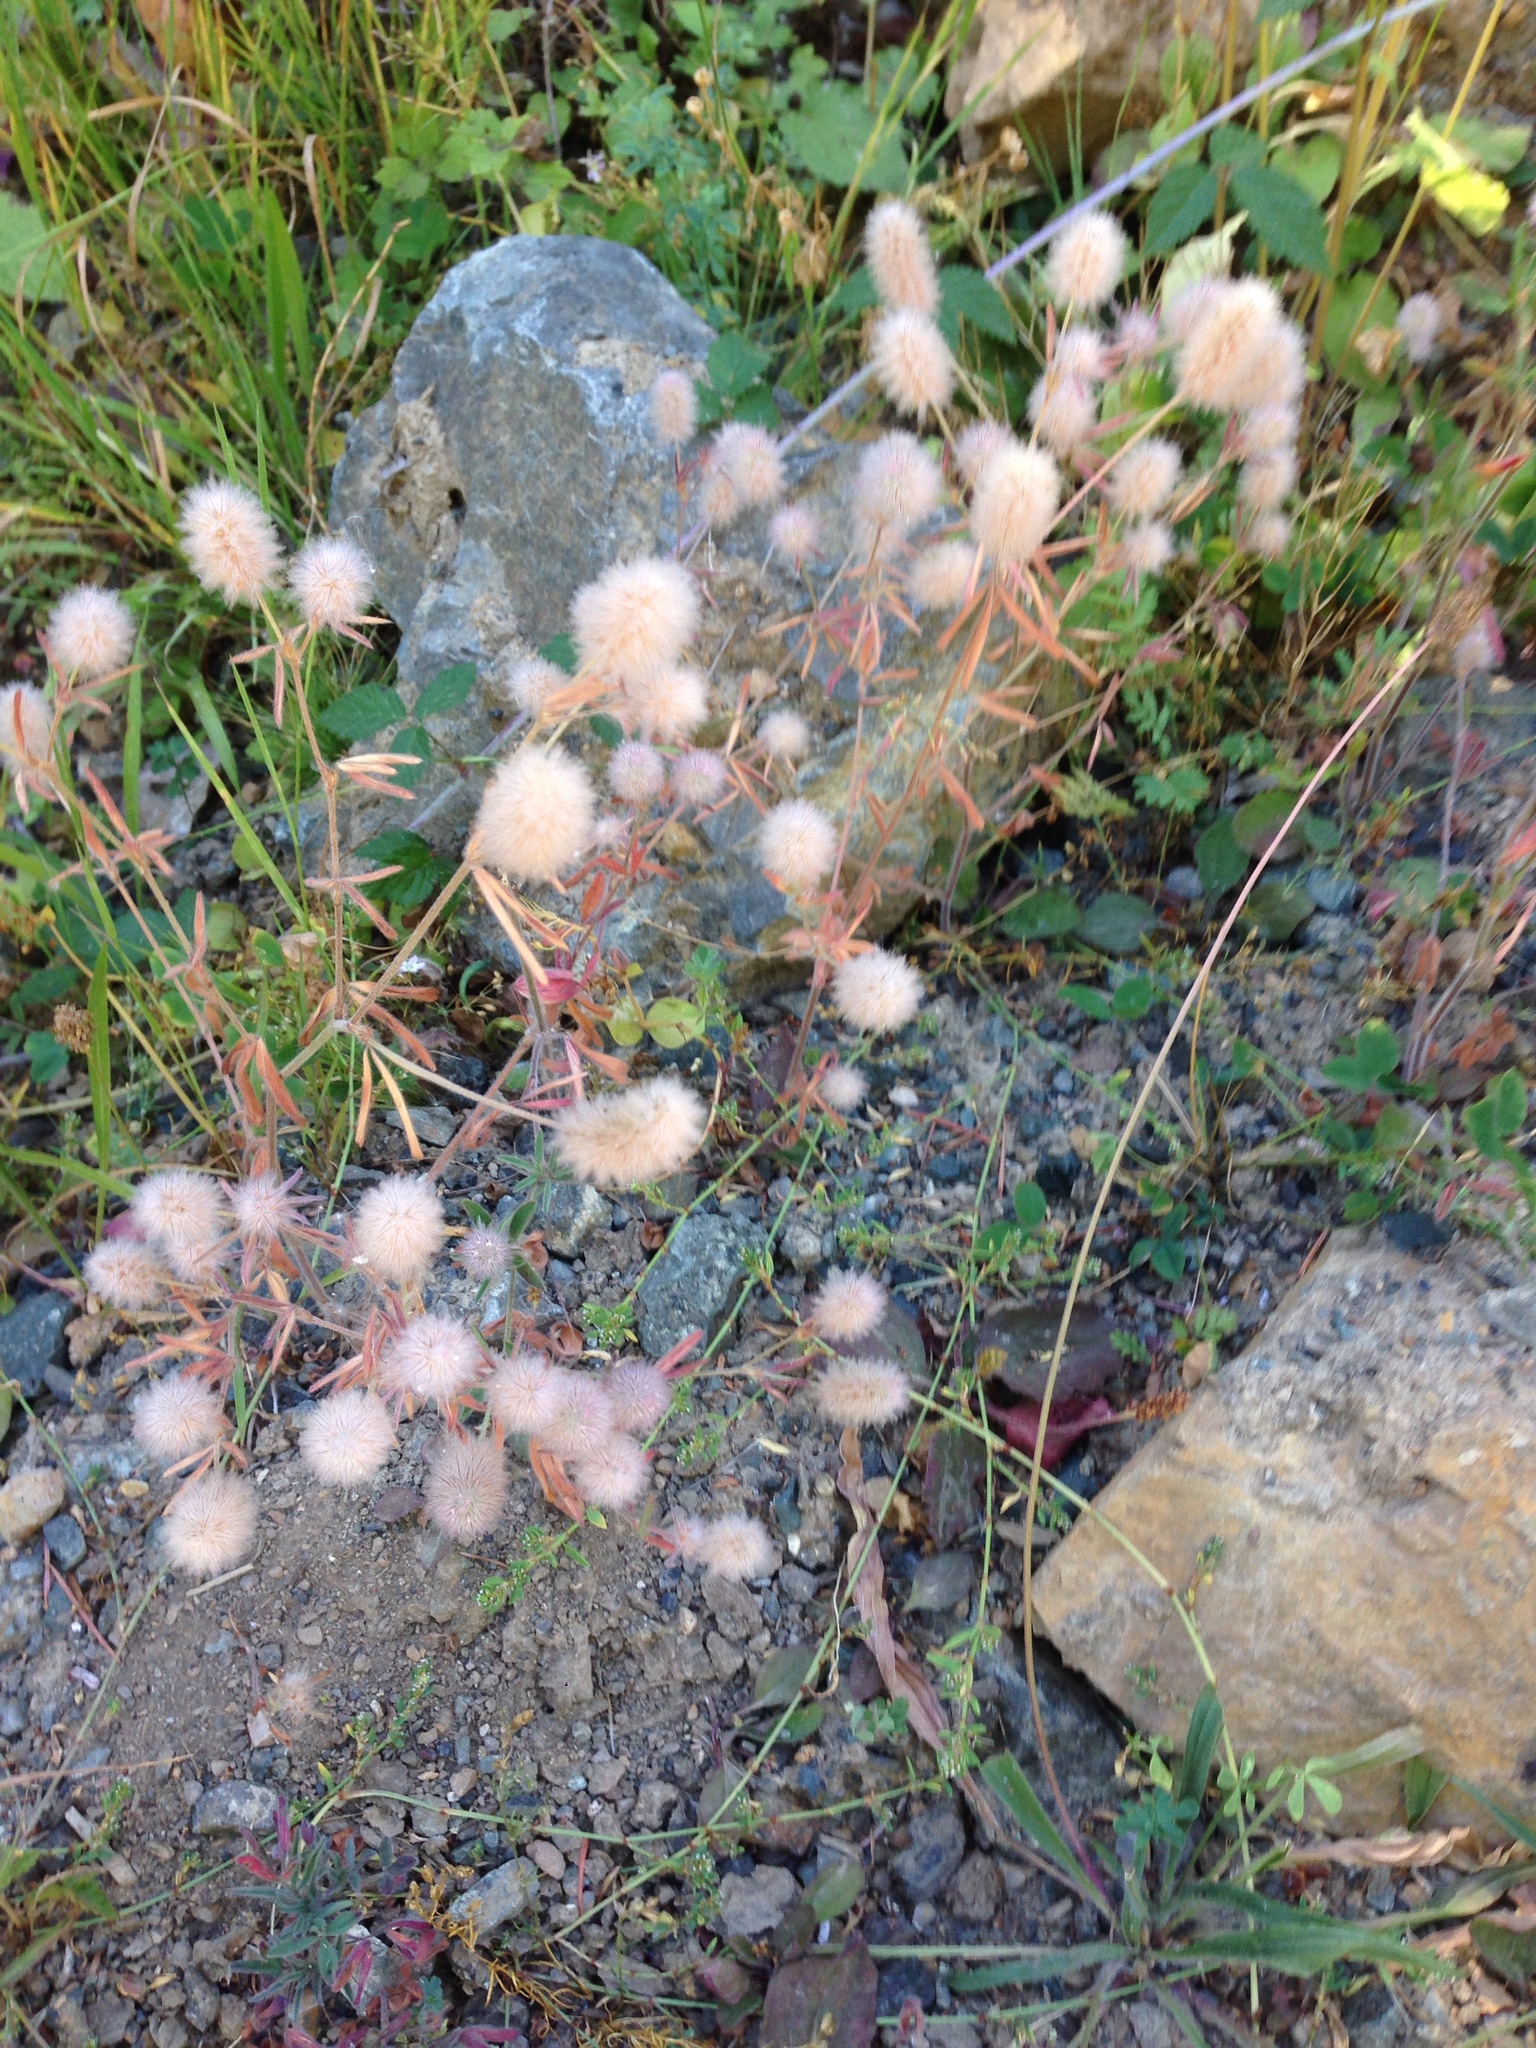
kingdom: Plantae
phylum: Tracheophyta
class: Magnoliopsida
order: Fabales
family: Fabaceae
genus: Trifolium
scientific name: Trifolium arvense
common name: Hare's-foot clover
